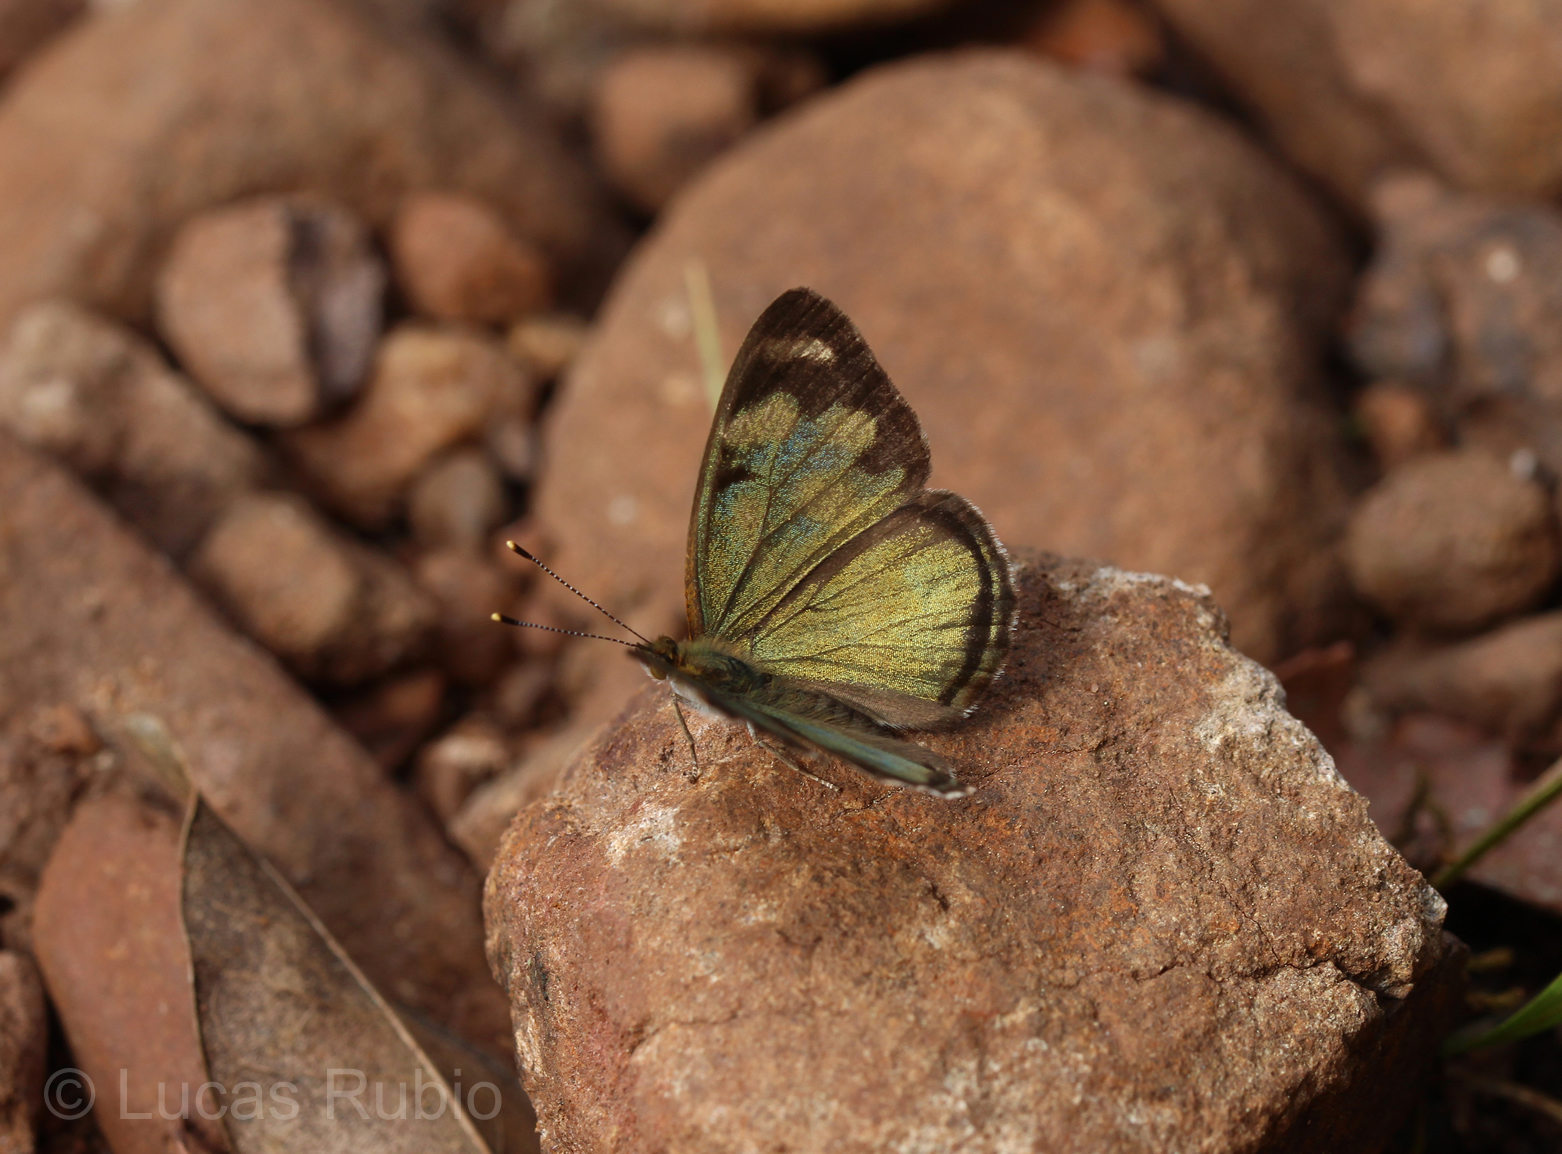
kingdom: Animalia
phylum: Arthropoda
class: Insecta
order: Lepidoptera
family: Nymphalidae
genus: Dynamine
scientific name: Dynamine artemisia
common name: Small-eyed sailor
